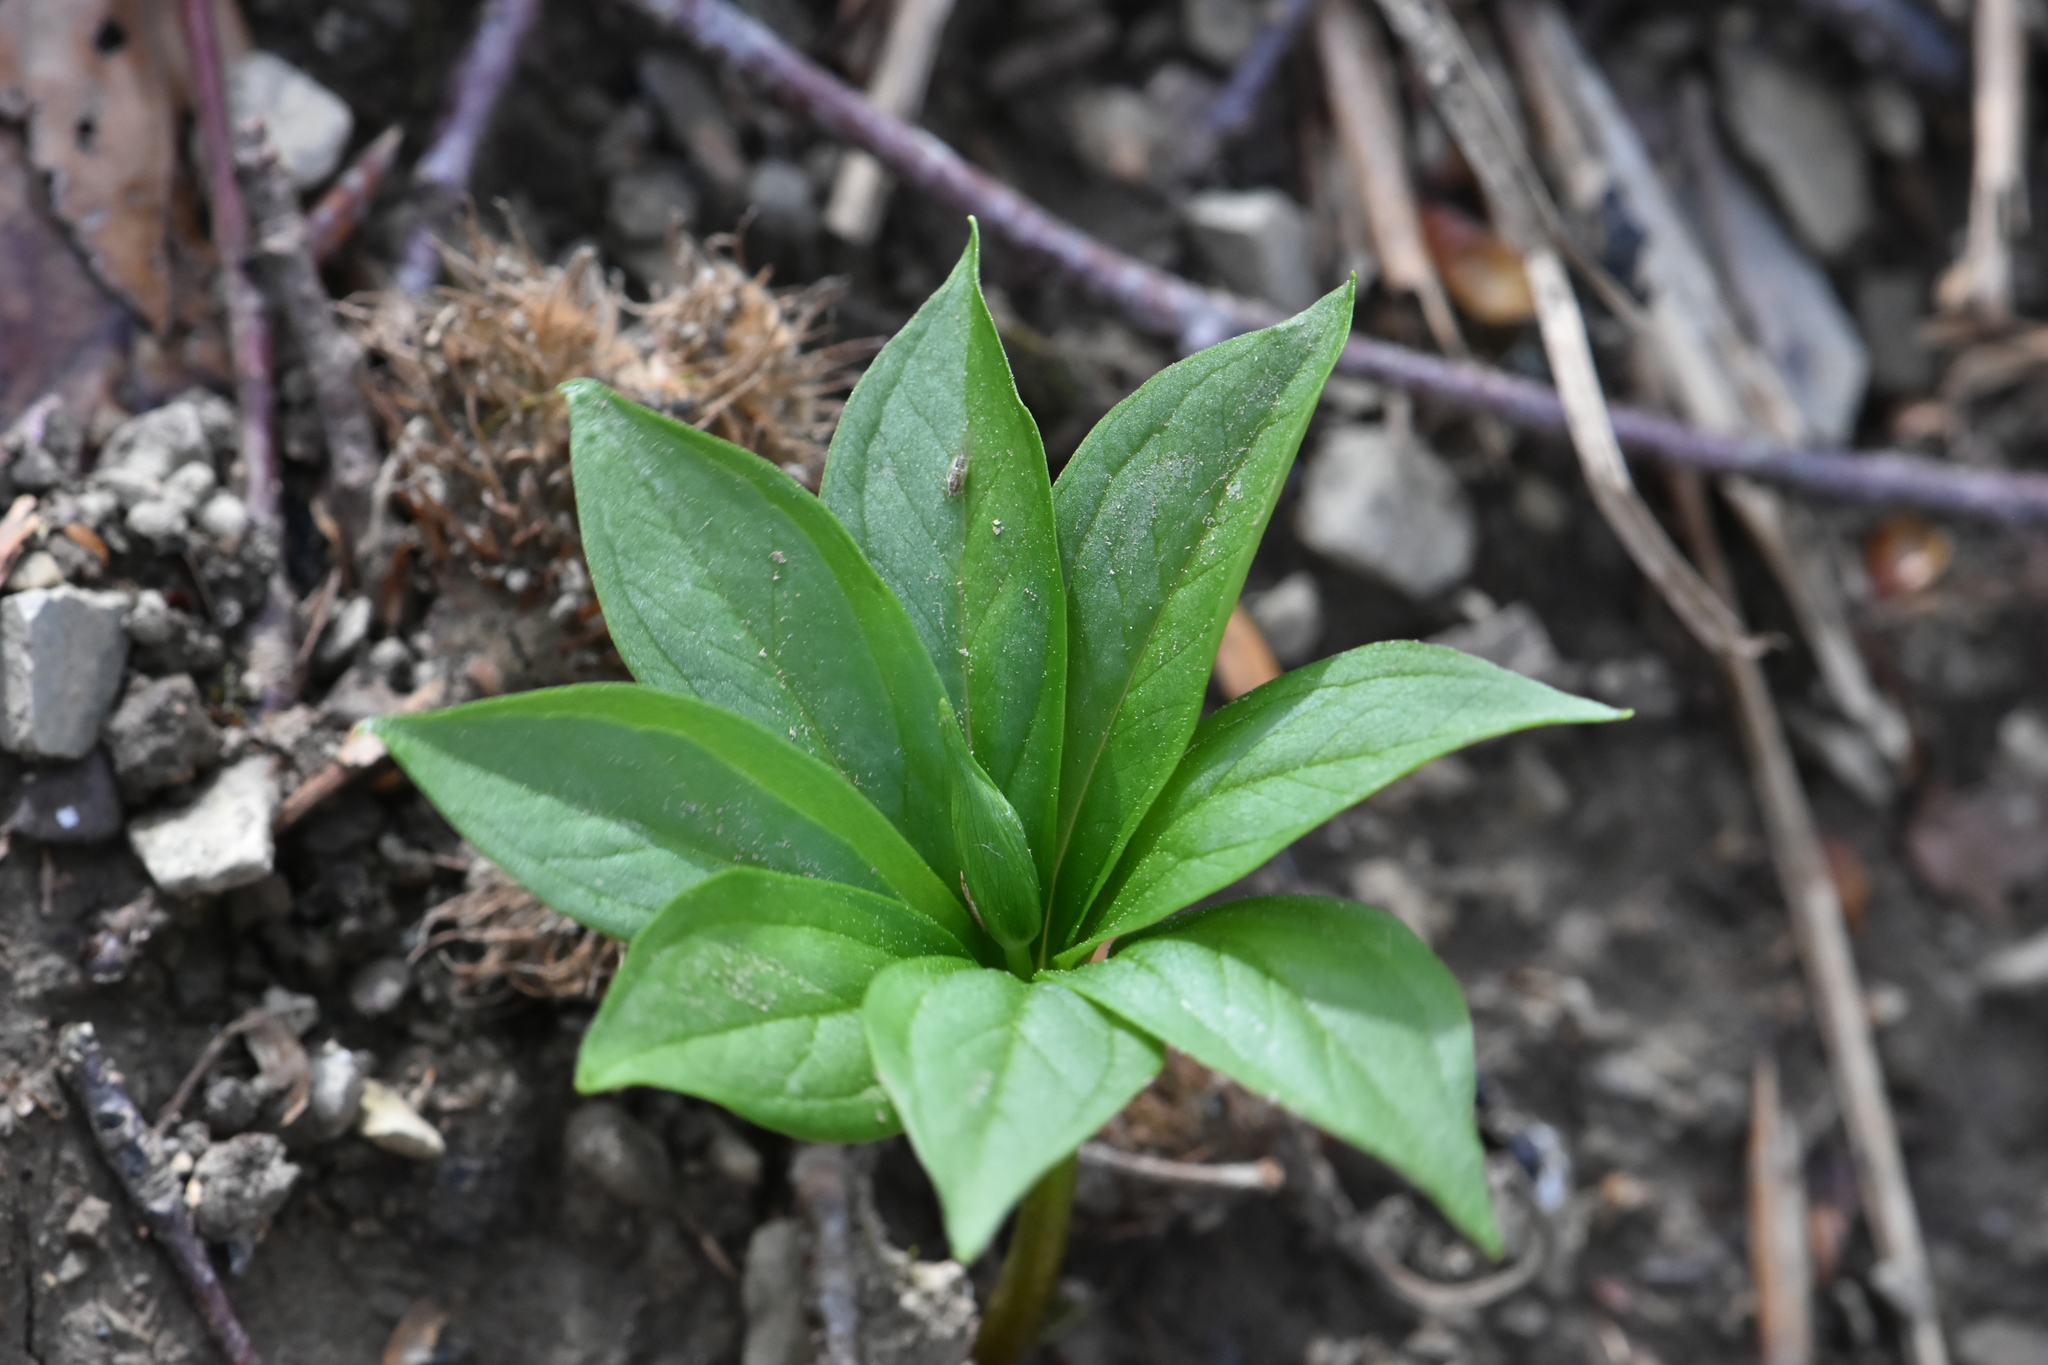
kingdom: Plantae
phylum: Tracheophyta
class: Liliopsida
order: Liliales
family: Melanthiaceae
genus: Paris
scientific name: Paris incompleta
